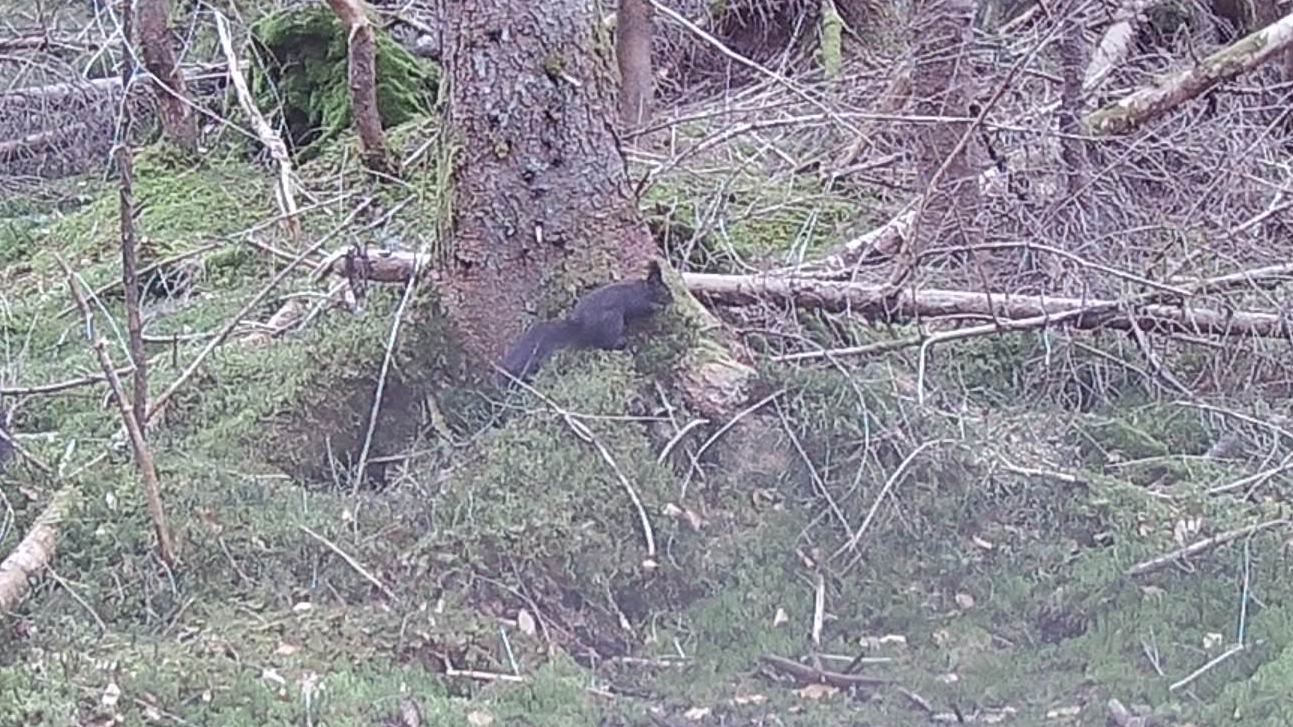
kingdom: Animalia
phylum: Chordata
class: Mammalia
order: Rodentia
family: Sciuridae
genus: Sciurus
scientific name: Sciurus vulgaris
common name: Eurasian red squirrel
